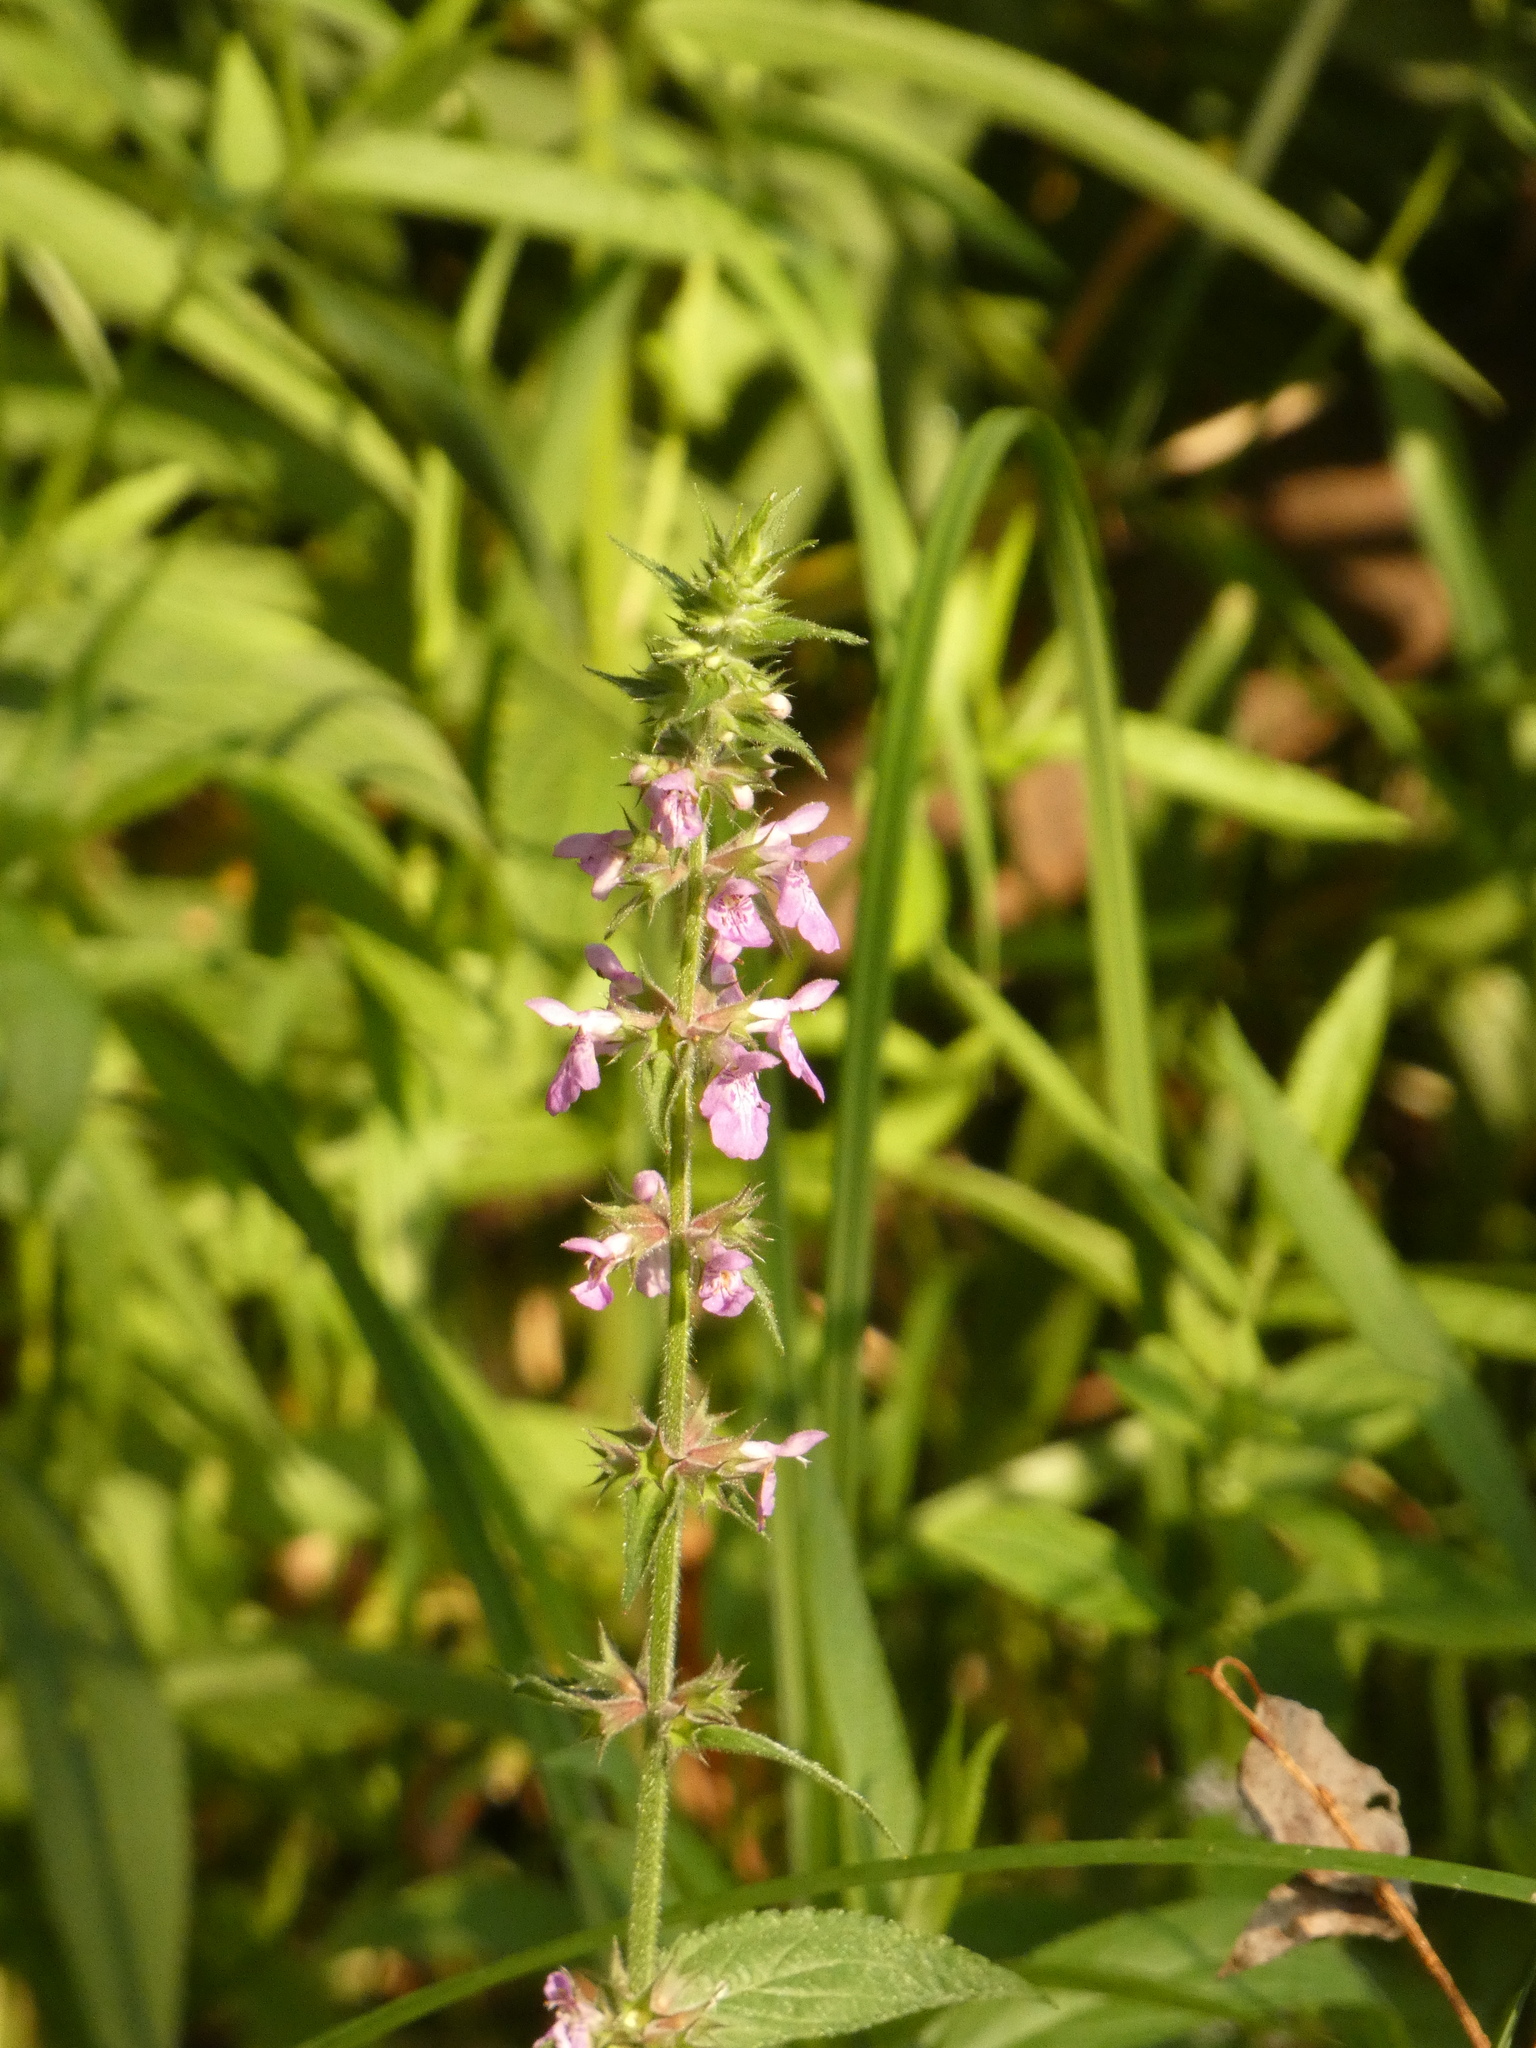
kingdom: Plantae
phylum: Tracheophyta
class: Magnoliopsida
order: Lamiales
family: Lamiaceae
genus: Stachys
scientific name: Stachys palustris
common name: Marsh woundwort
